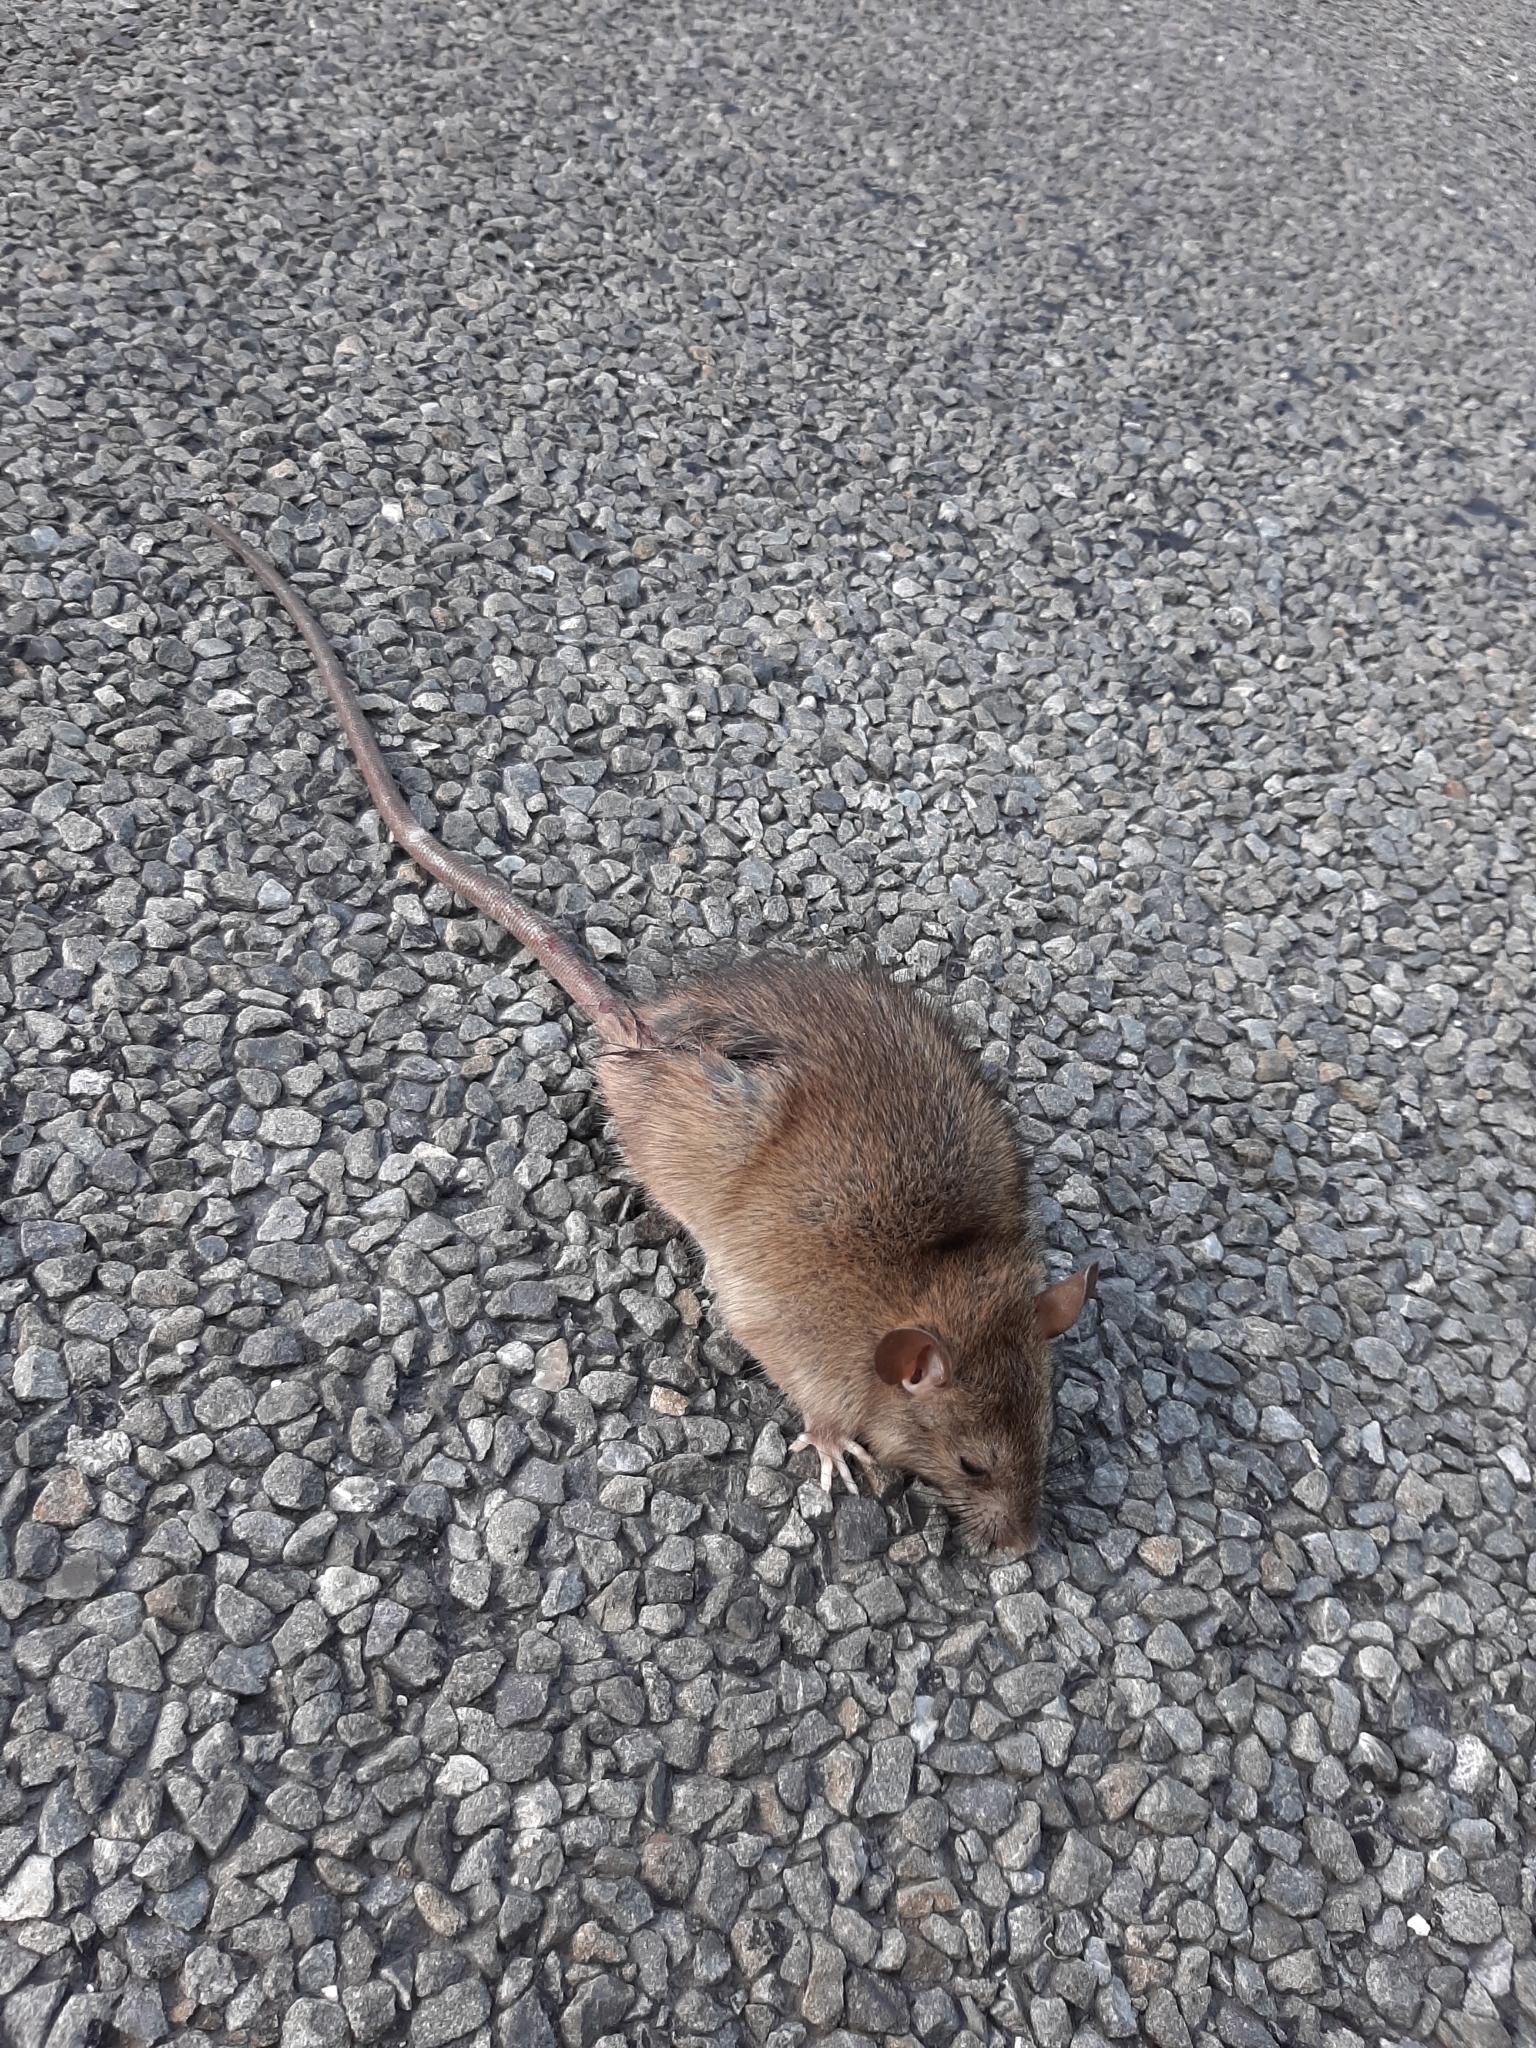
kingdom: Animalia
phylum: Chordata
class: Mammalia
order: Rodentia
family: Muridae
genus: Rattus
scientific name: Rattus rattus
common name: Black rat
